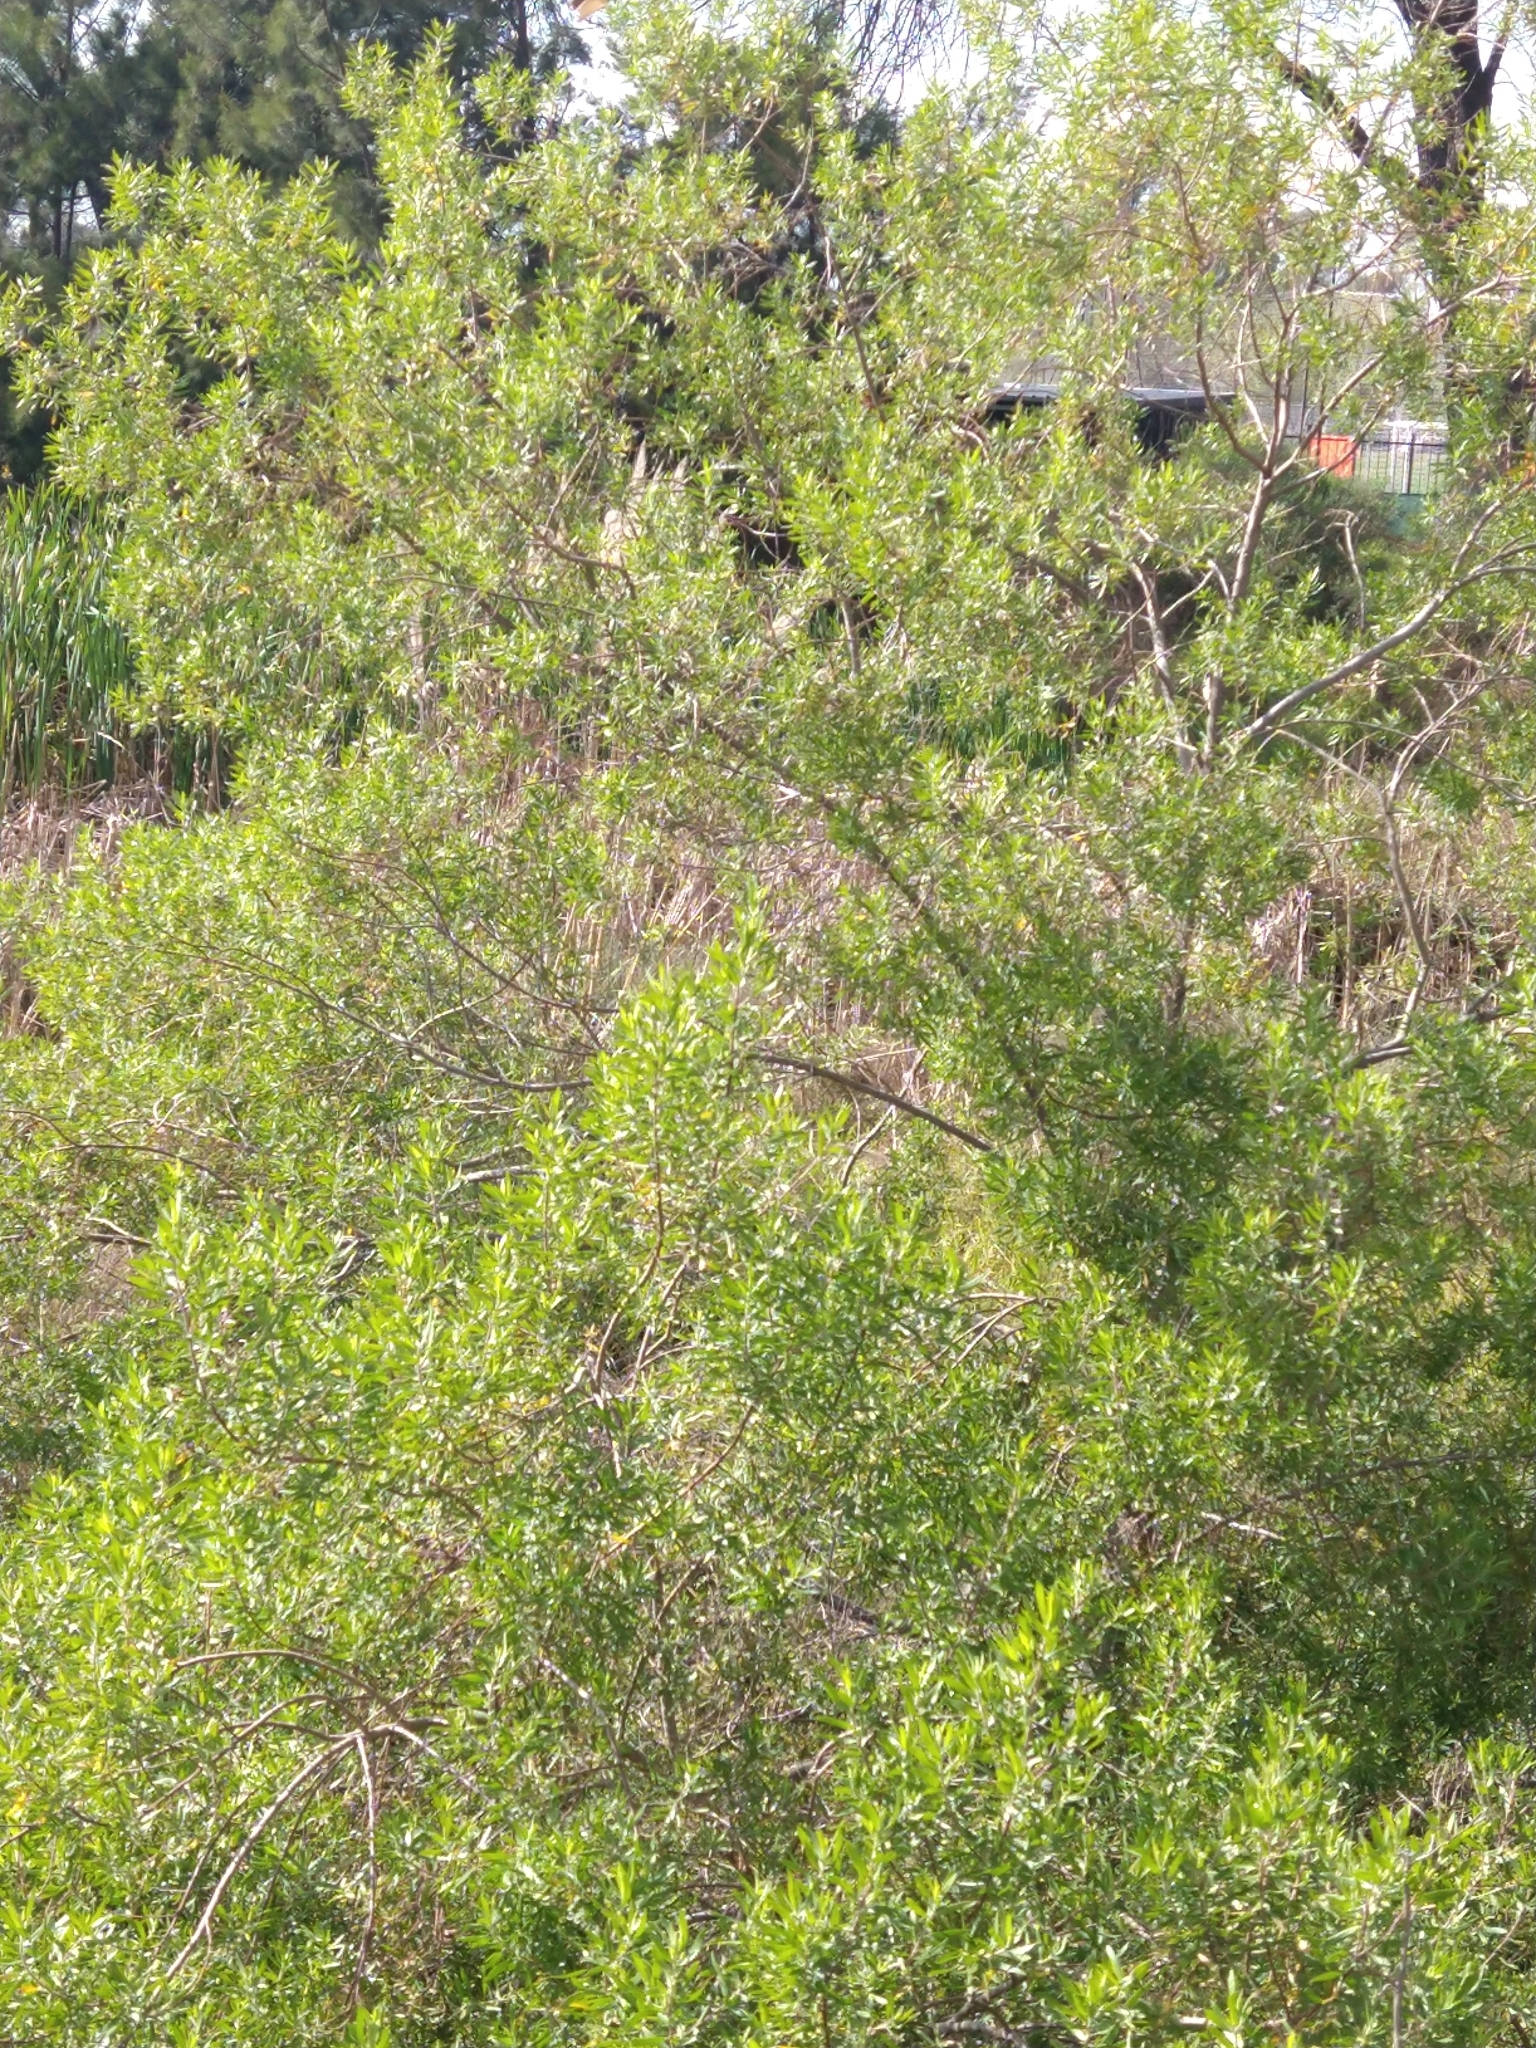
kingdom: Plantae
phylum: Tracheophyta
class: Magnoliopsida
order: Asterales
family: Asteraceae
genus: Baccharis
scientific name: Baccharis dracunculifolia
